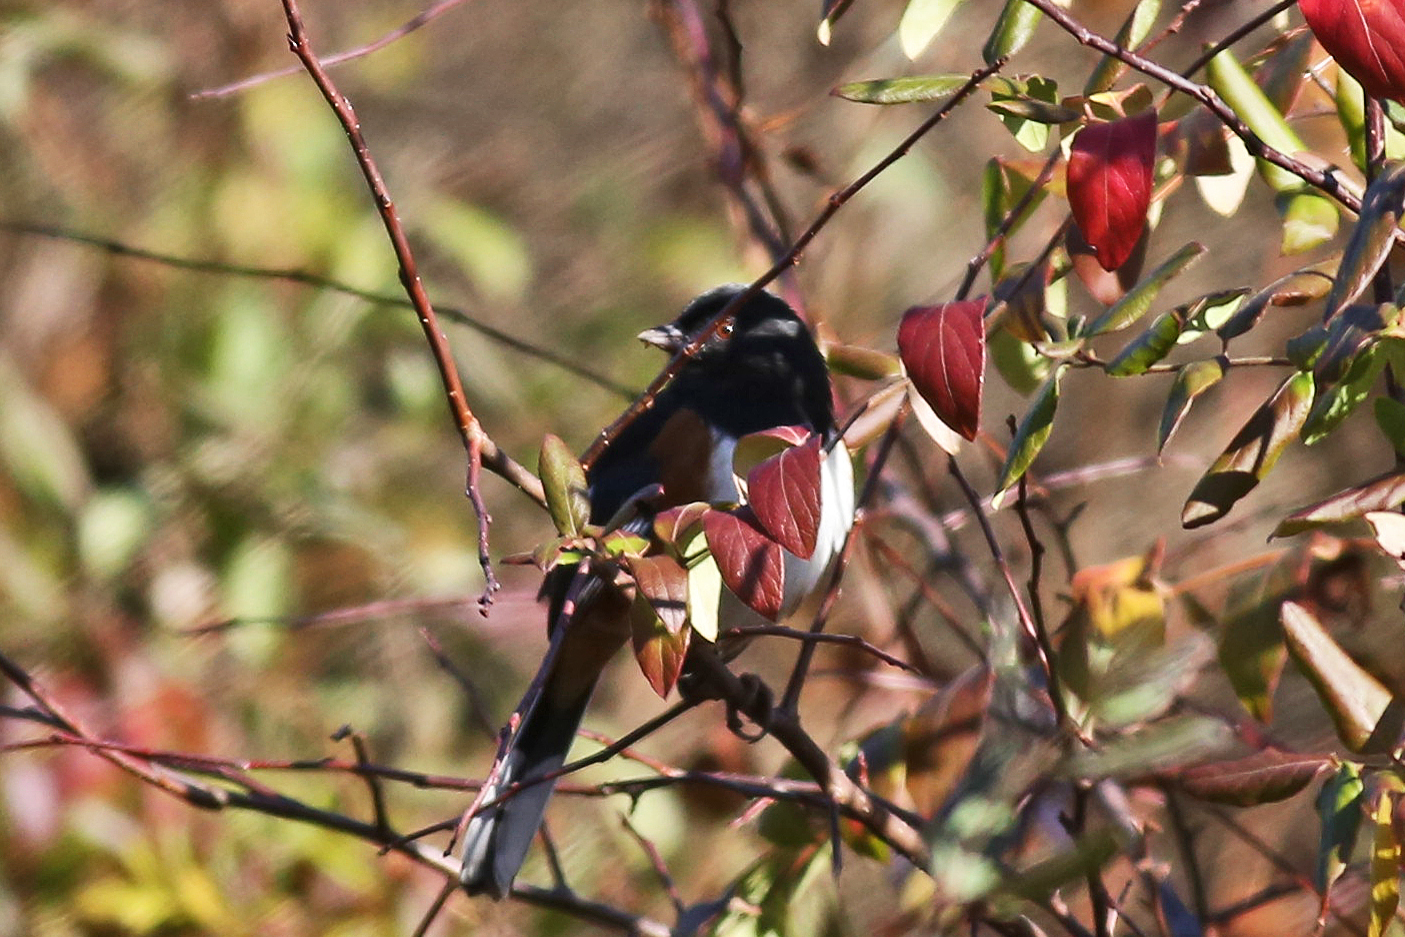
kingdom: Animalia
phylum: Chordata
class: Aves
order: Passeriformes
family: Passerellidae
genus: Pipilo
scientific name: Pipilo erythrophthalmus
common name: Eastern towhee
